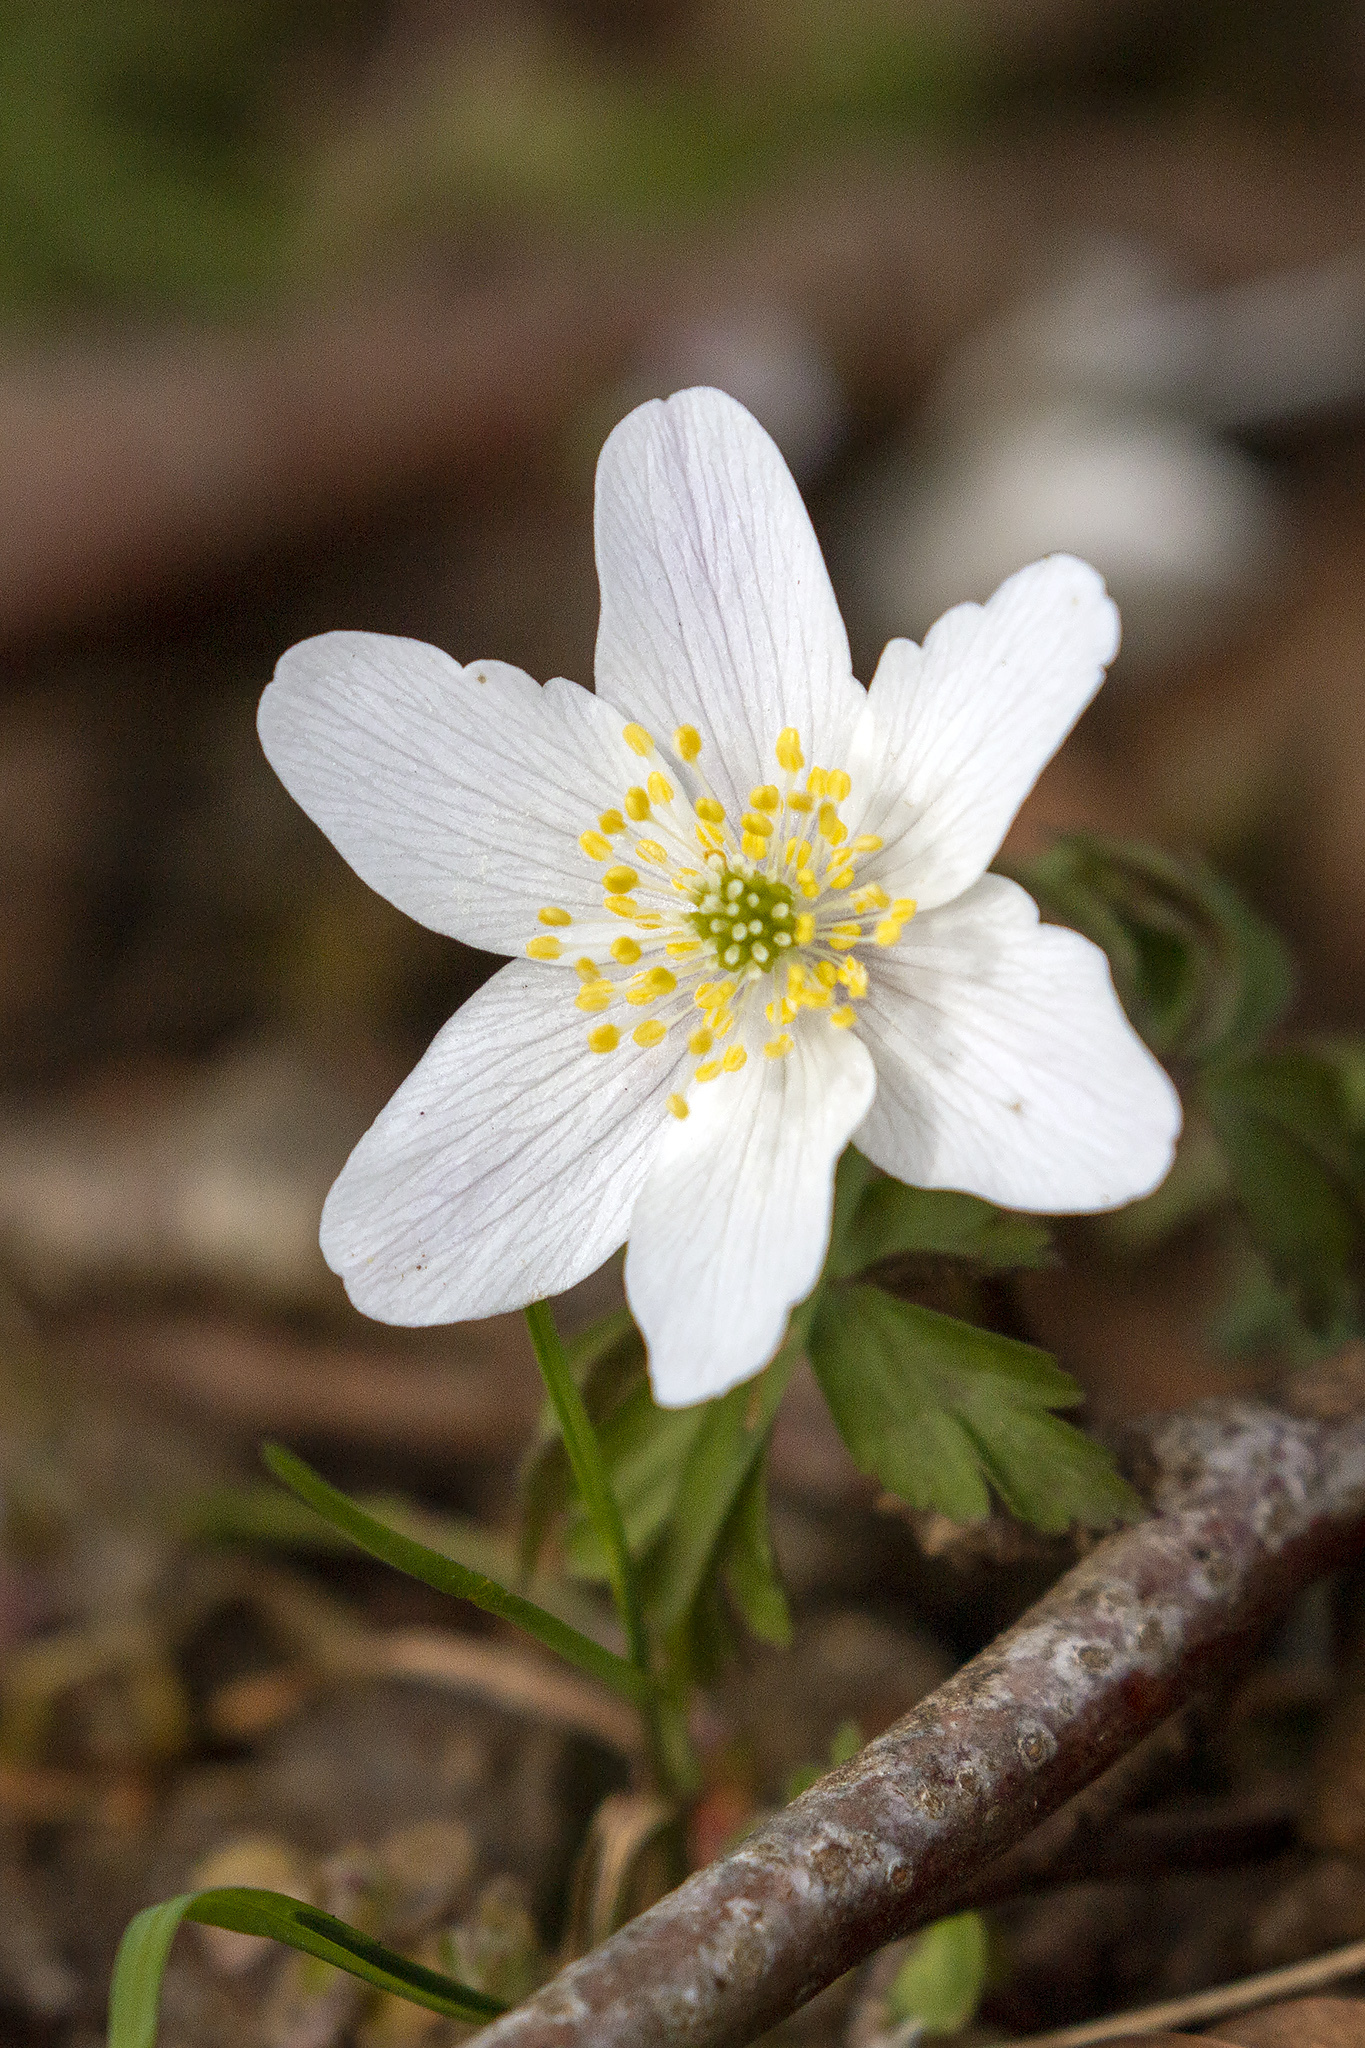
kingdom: Plantae
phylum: Tracheophyta
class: Magnoliopsida
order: Ranunculales
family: Ranunculaceae
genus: Anemone
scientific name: Anemone nemorosa
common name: Wood anemone
